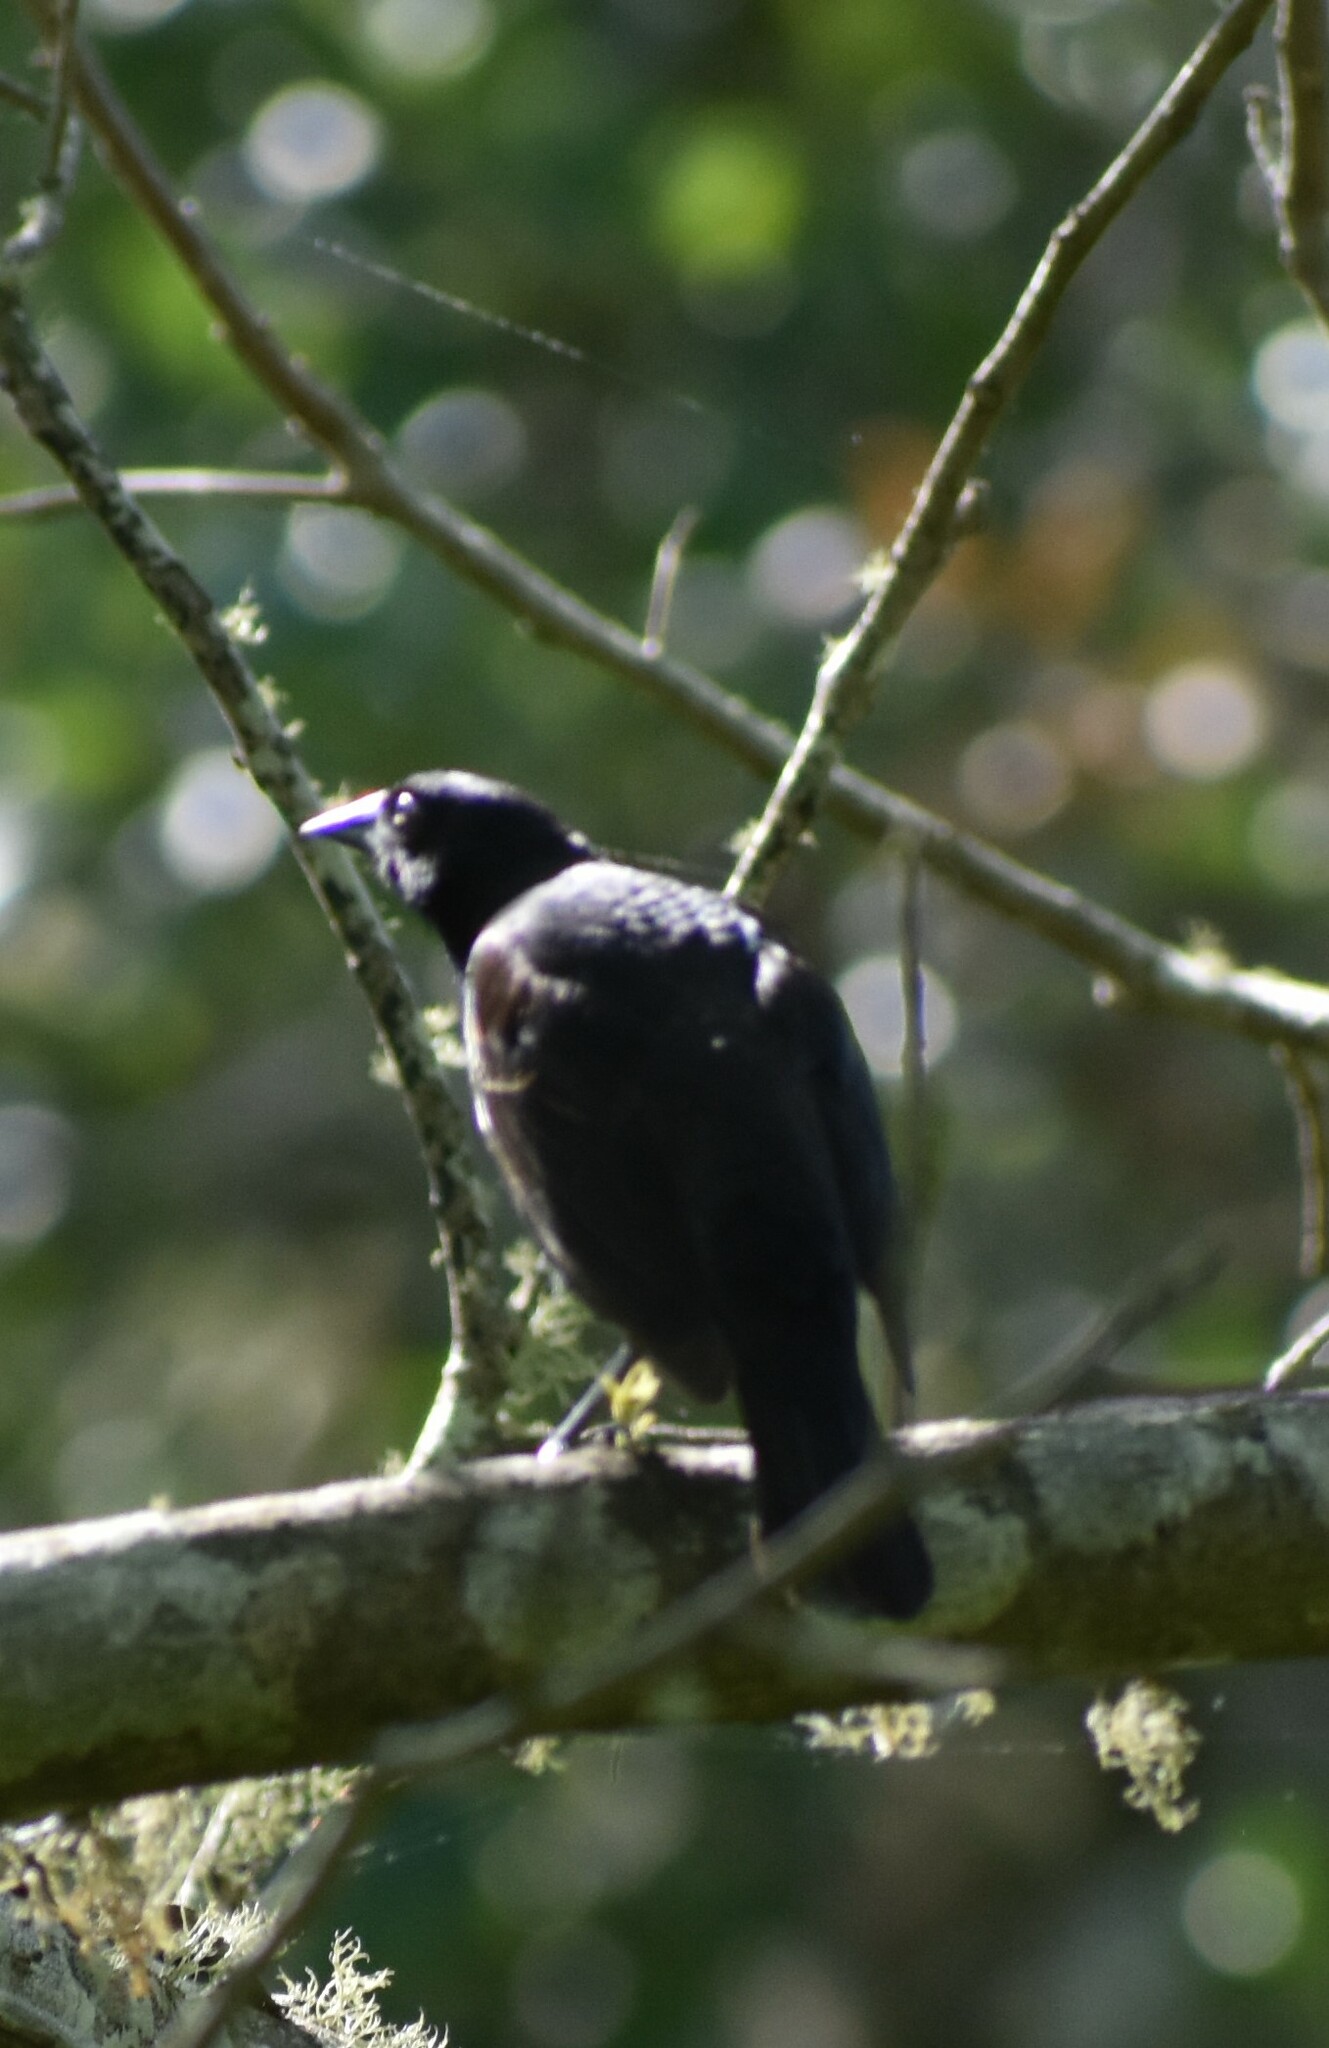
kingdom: Animalia
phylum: Chordata
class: Aves
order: Passeriformes
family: Icteridae
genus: Quiscalus
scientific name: Quiscalus quiscula
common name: Common grackle
